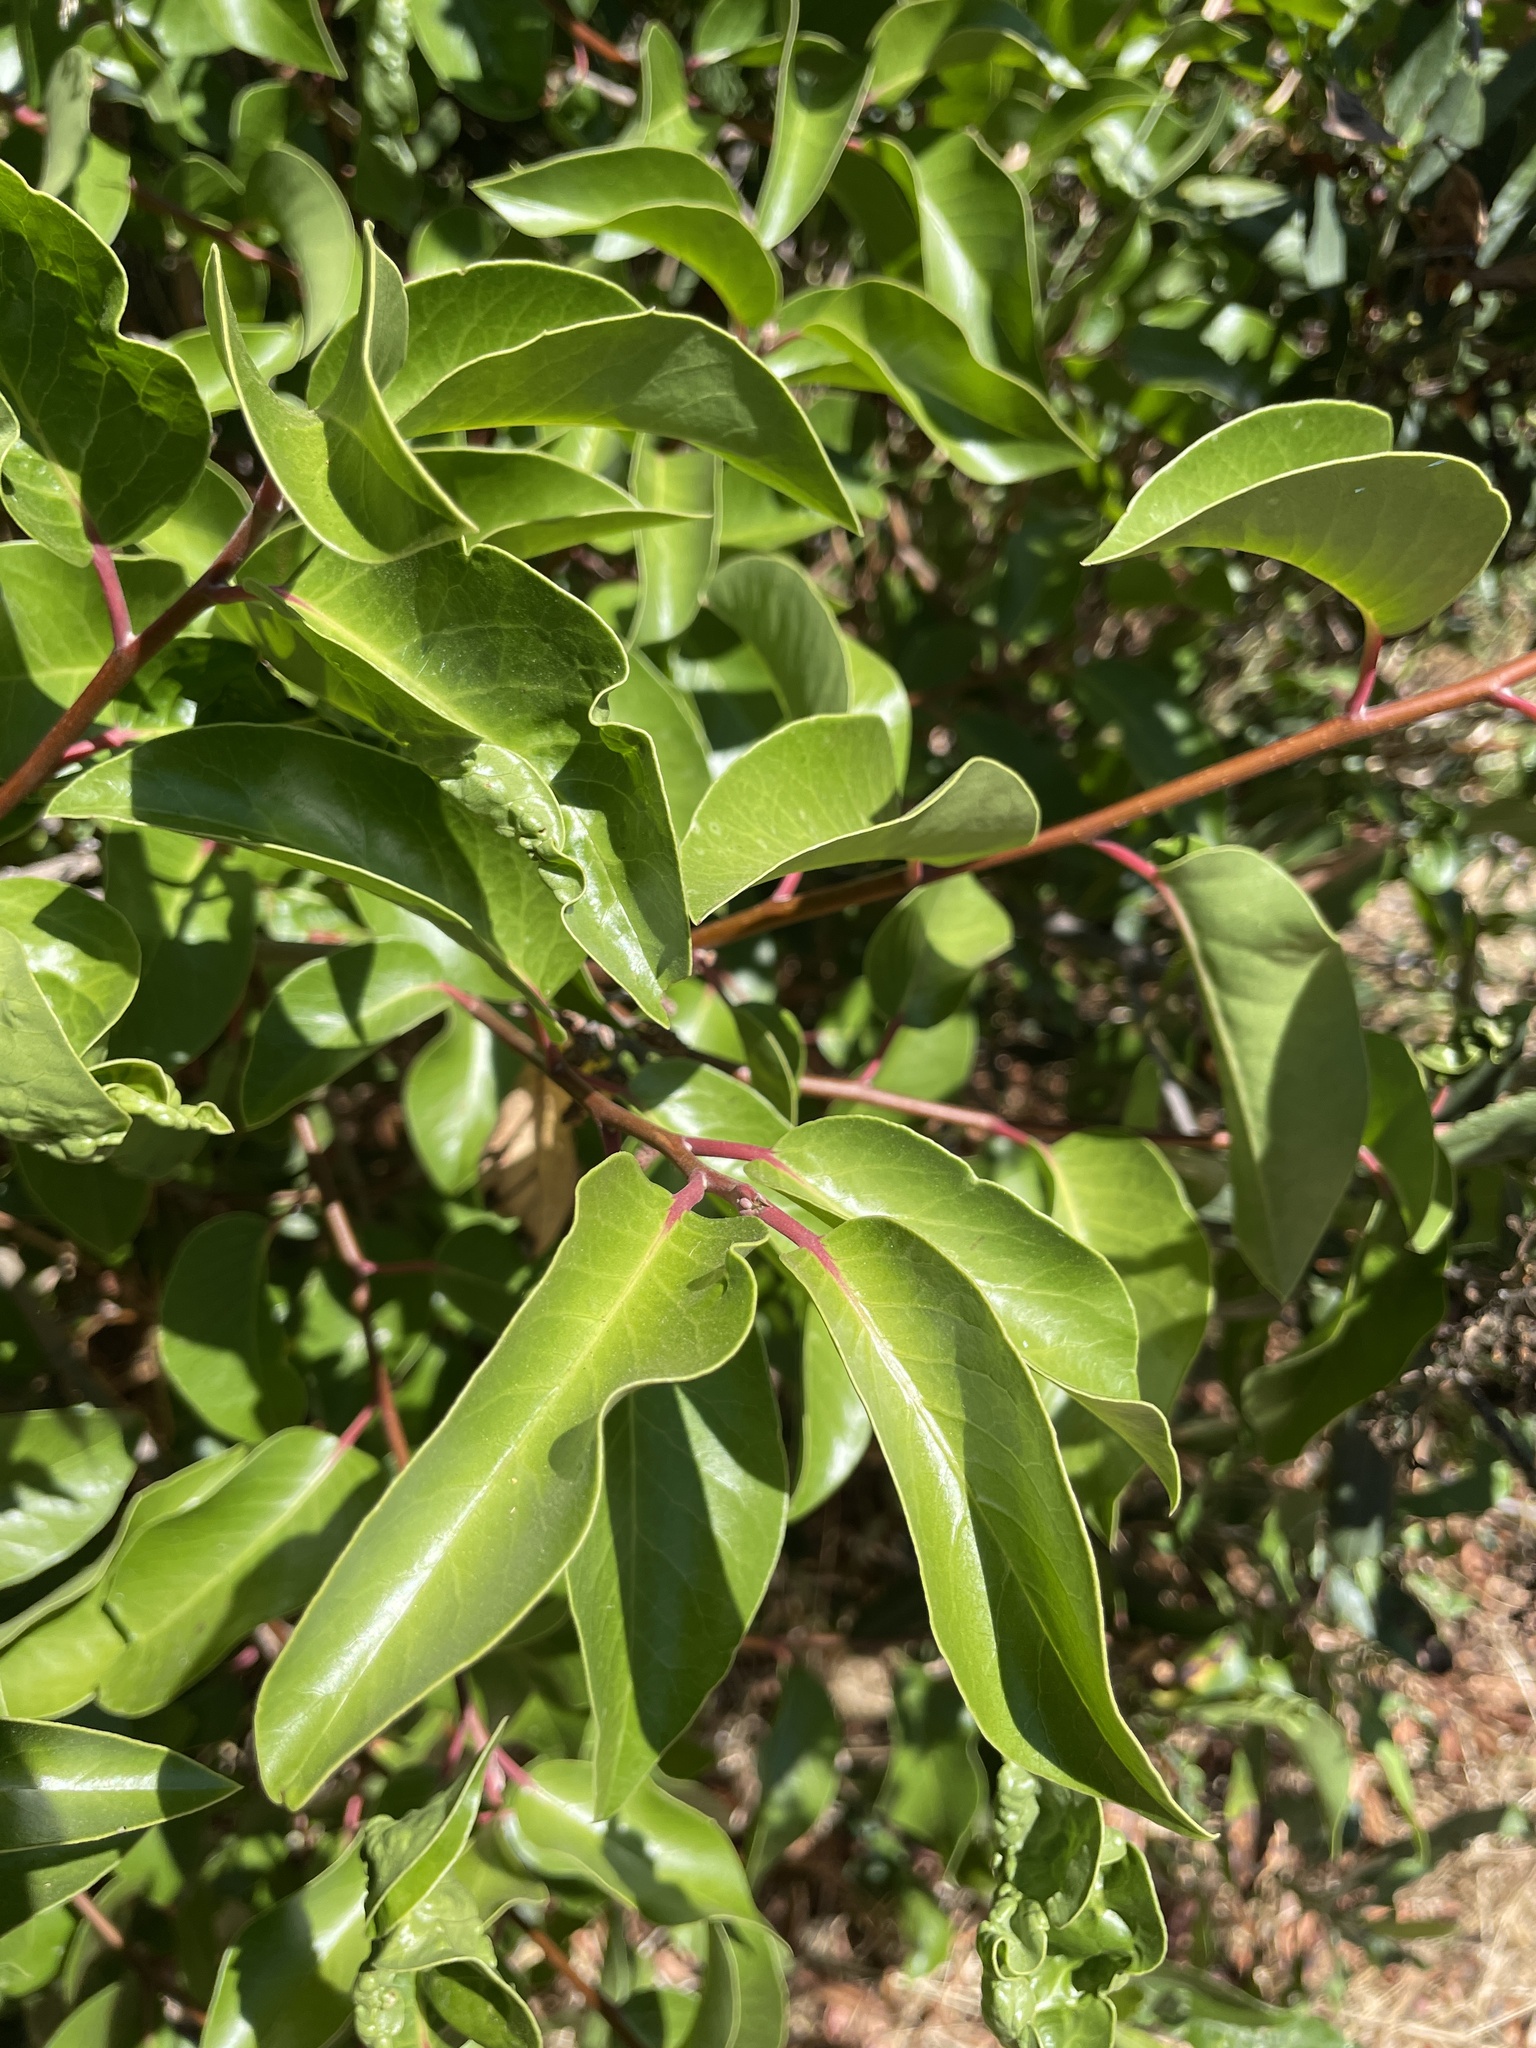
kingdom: Plantae
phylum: Tracheophyta
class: Magnoliopsida
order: Sapindales
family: Anacardiaceae
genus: Rhus
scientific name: Rhus ovata
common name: Sugar sumac
